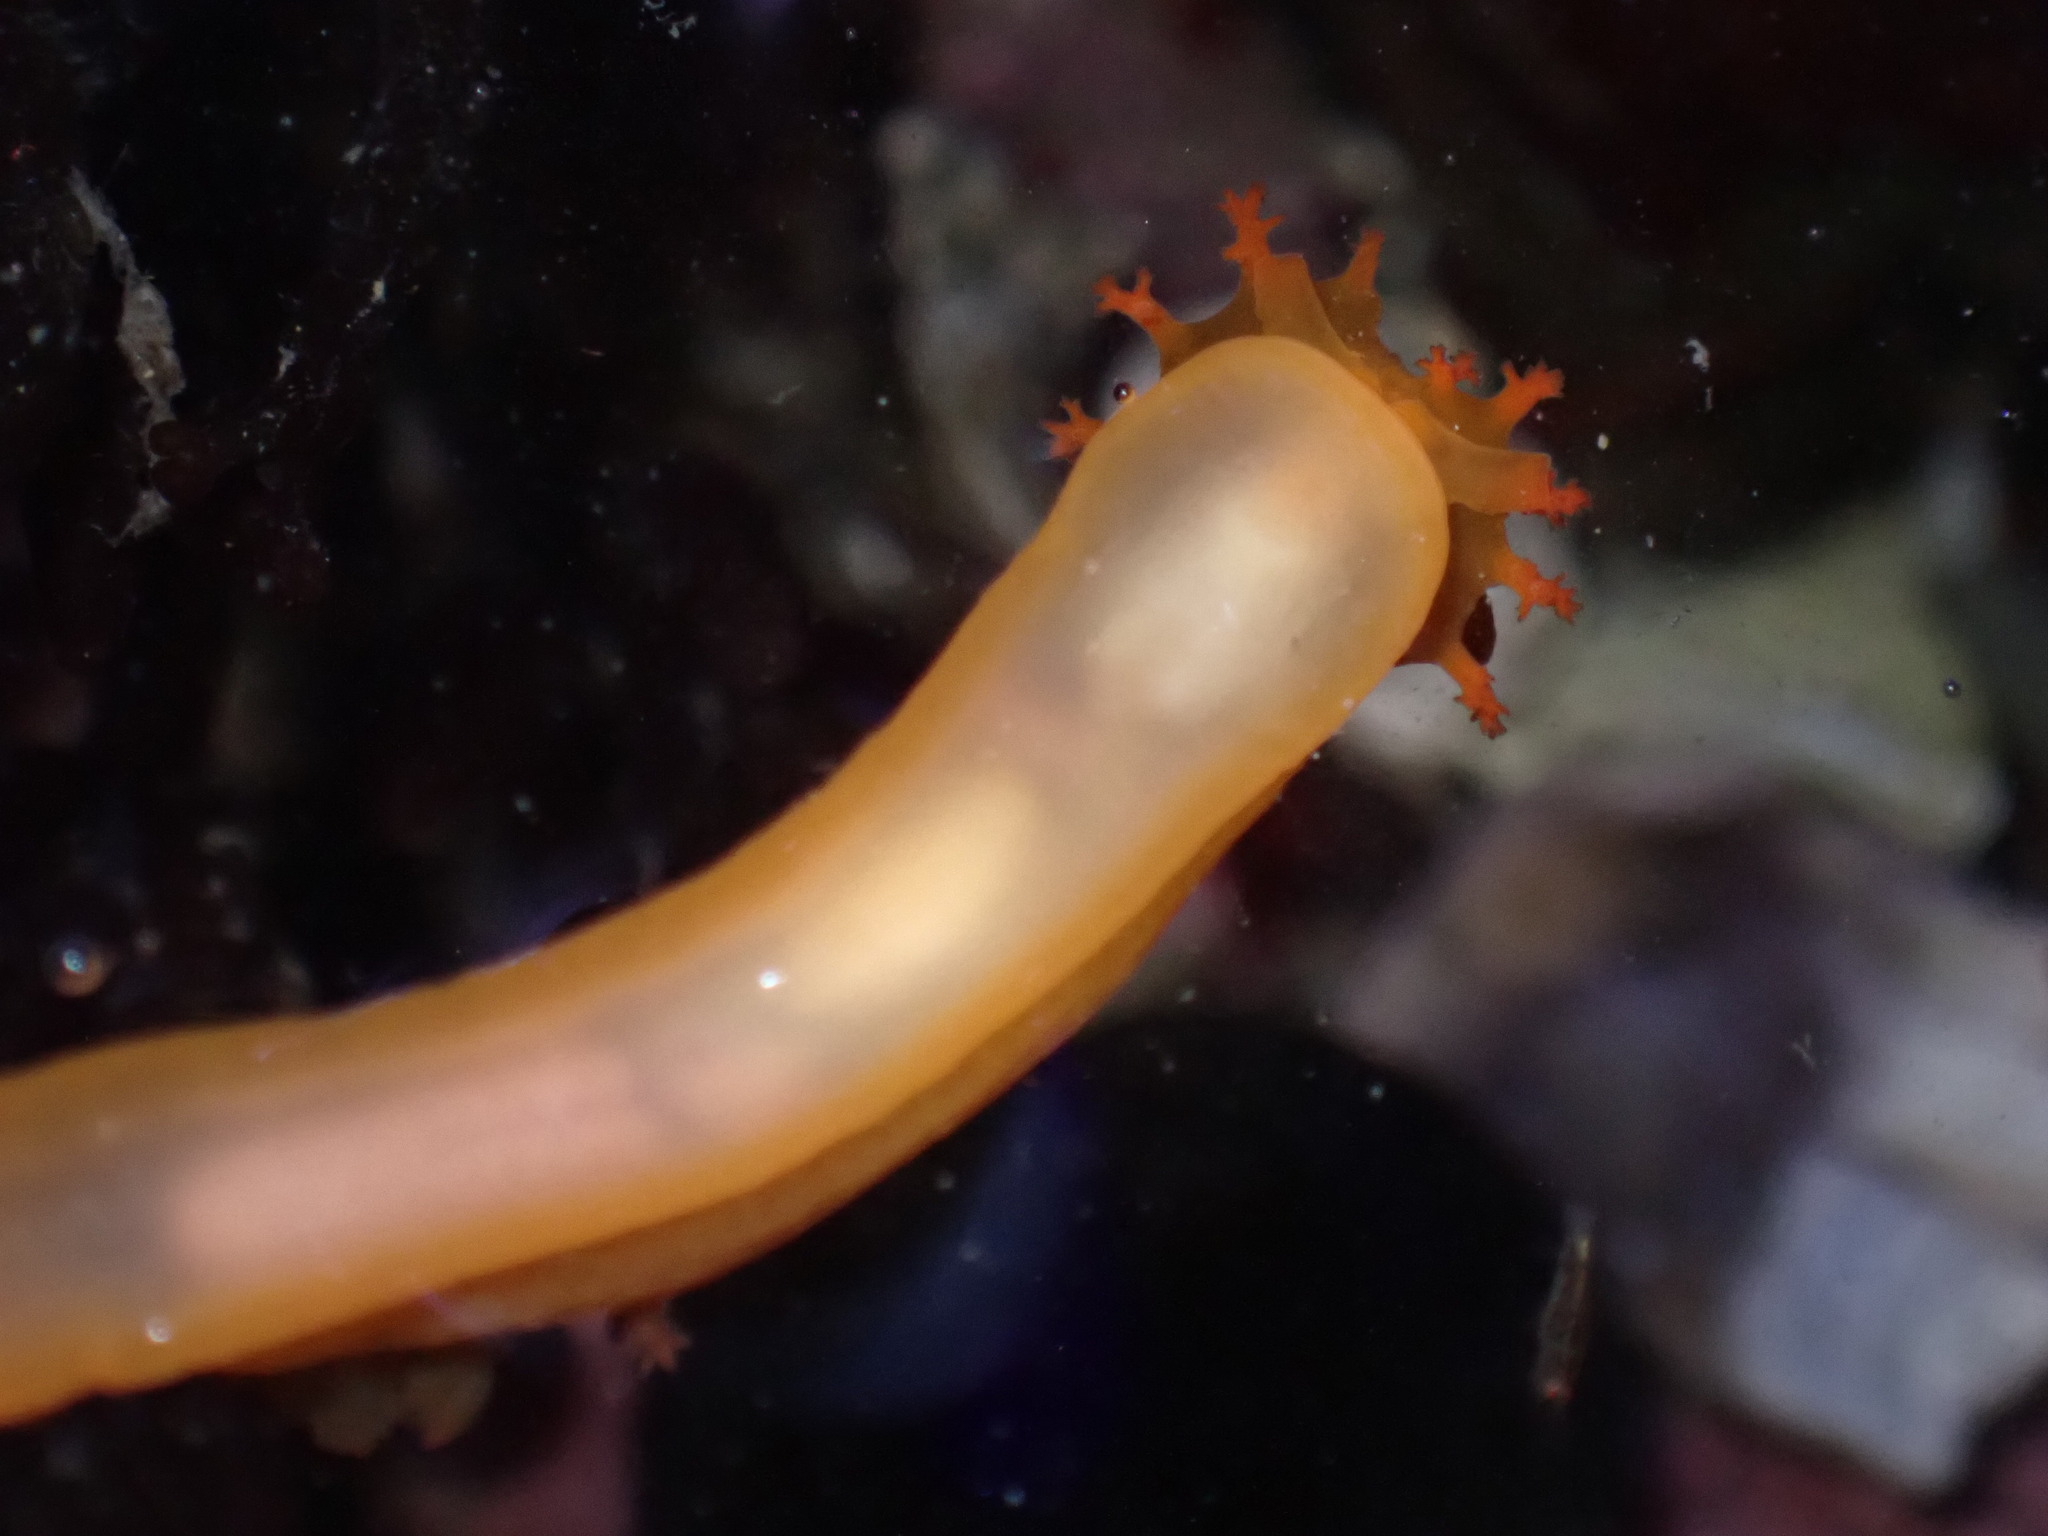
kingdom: Animalia
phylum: Mollusca
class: Gastropoda
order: Nudibranchia
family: Polyceridae
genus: Triopha
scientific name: Triopha maculata
